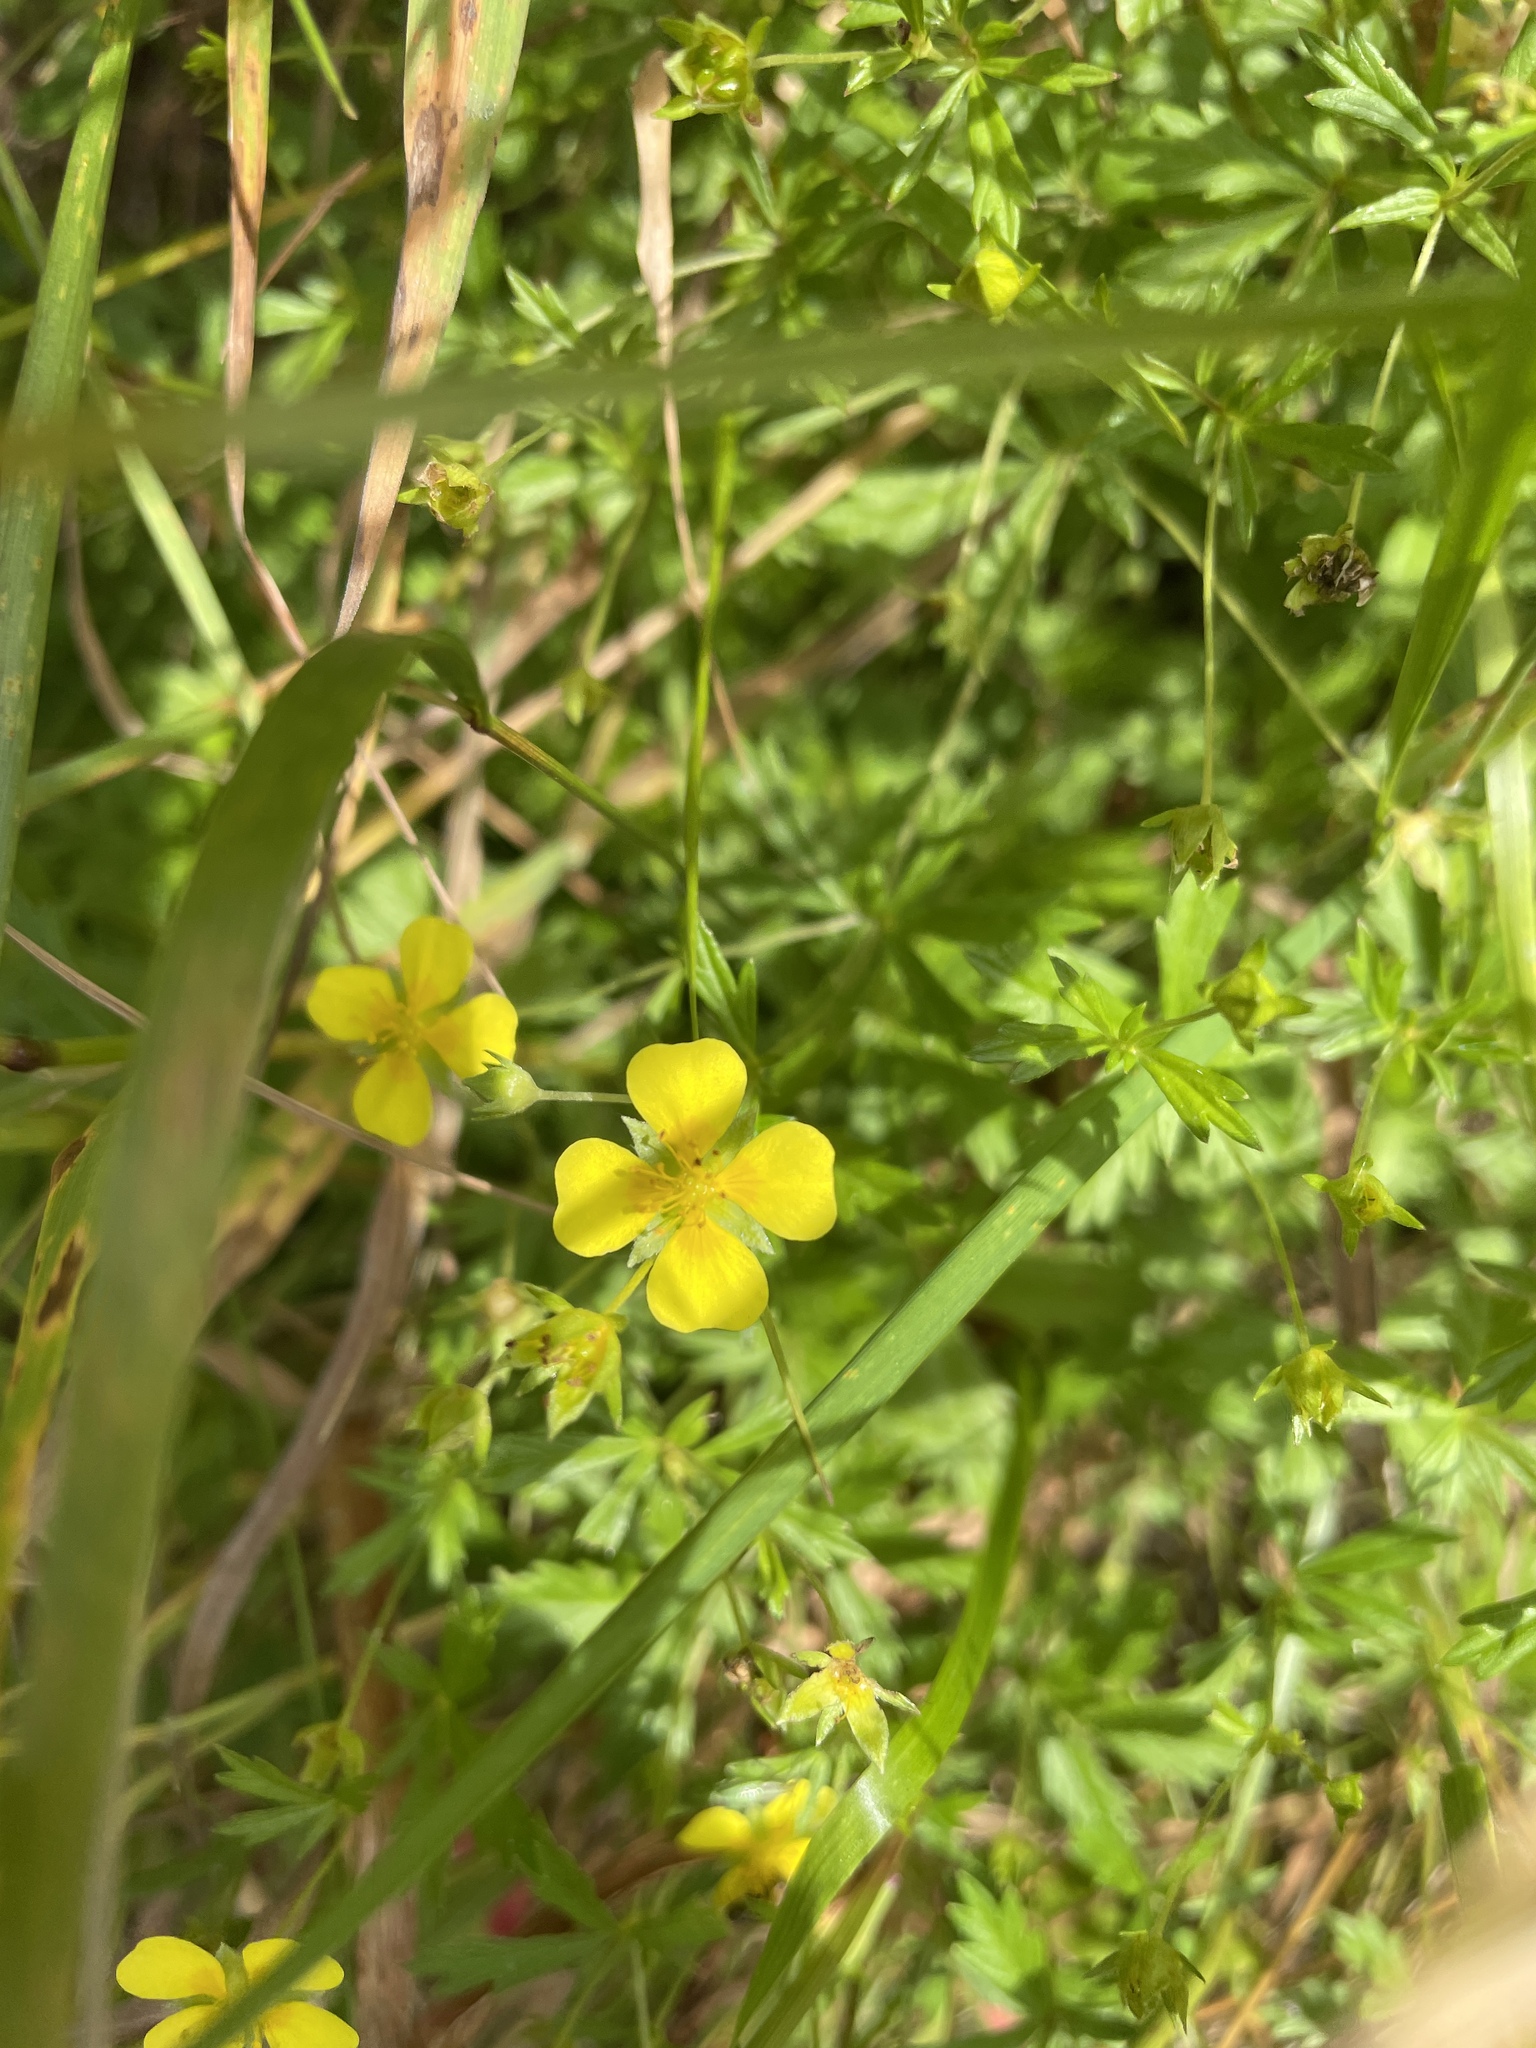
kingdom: Plantae
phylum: Tracheophyta
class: Magnoliopsida
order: Rosales
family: Rosaceae
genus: Potentilla
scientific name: Potentilla erecta
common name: Tormentil
